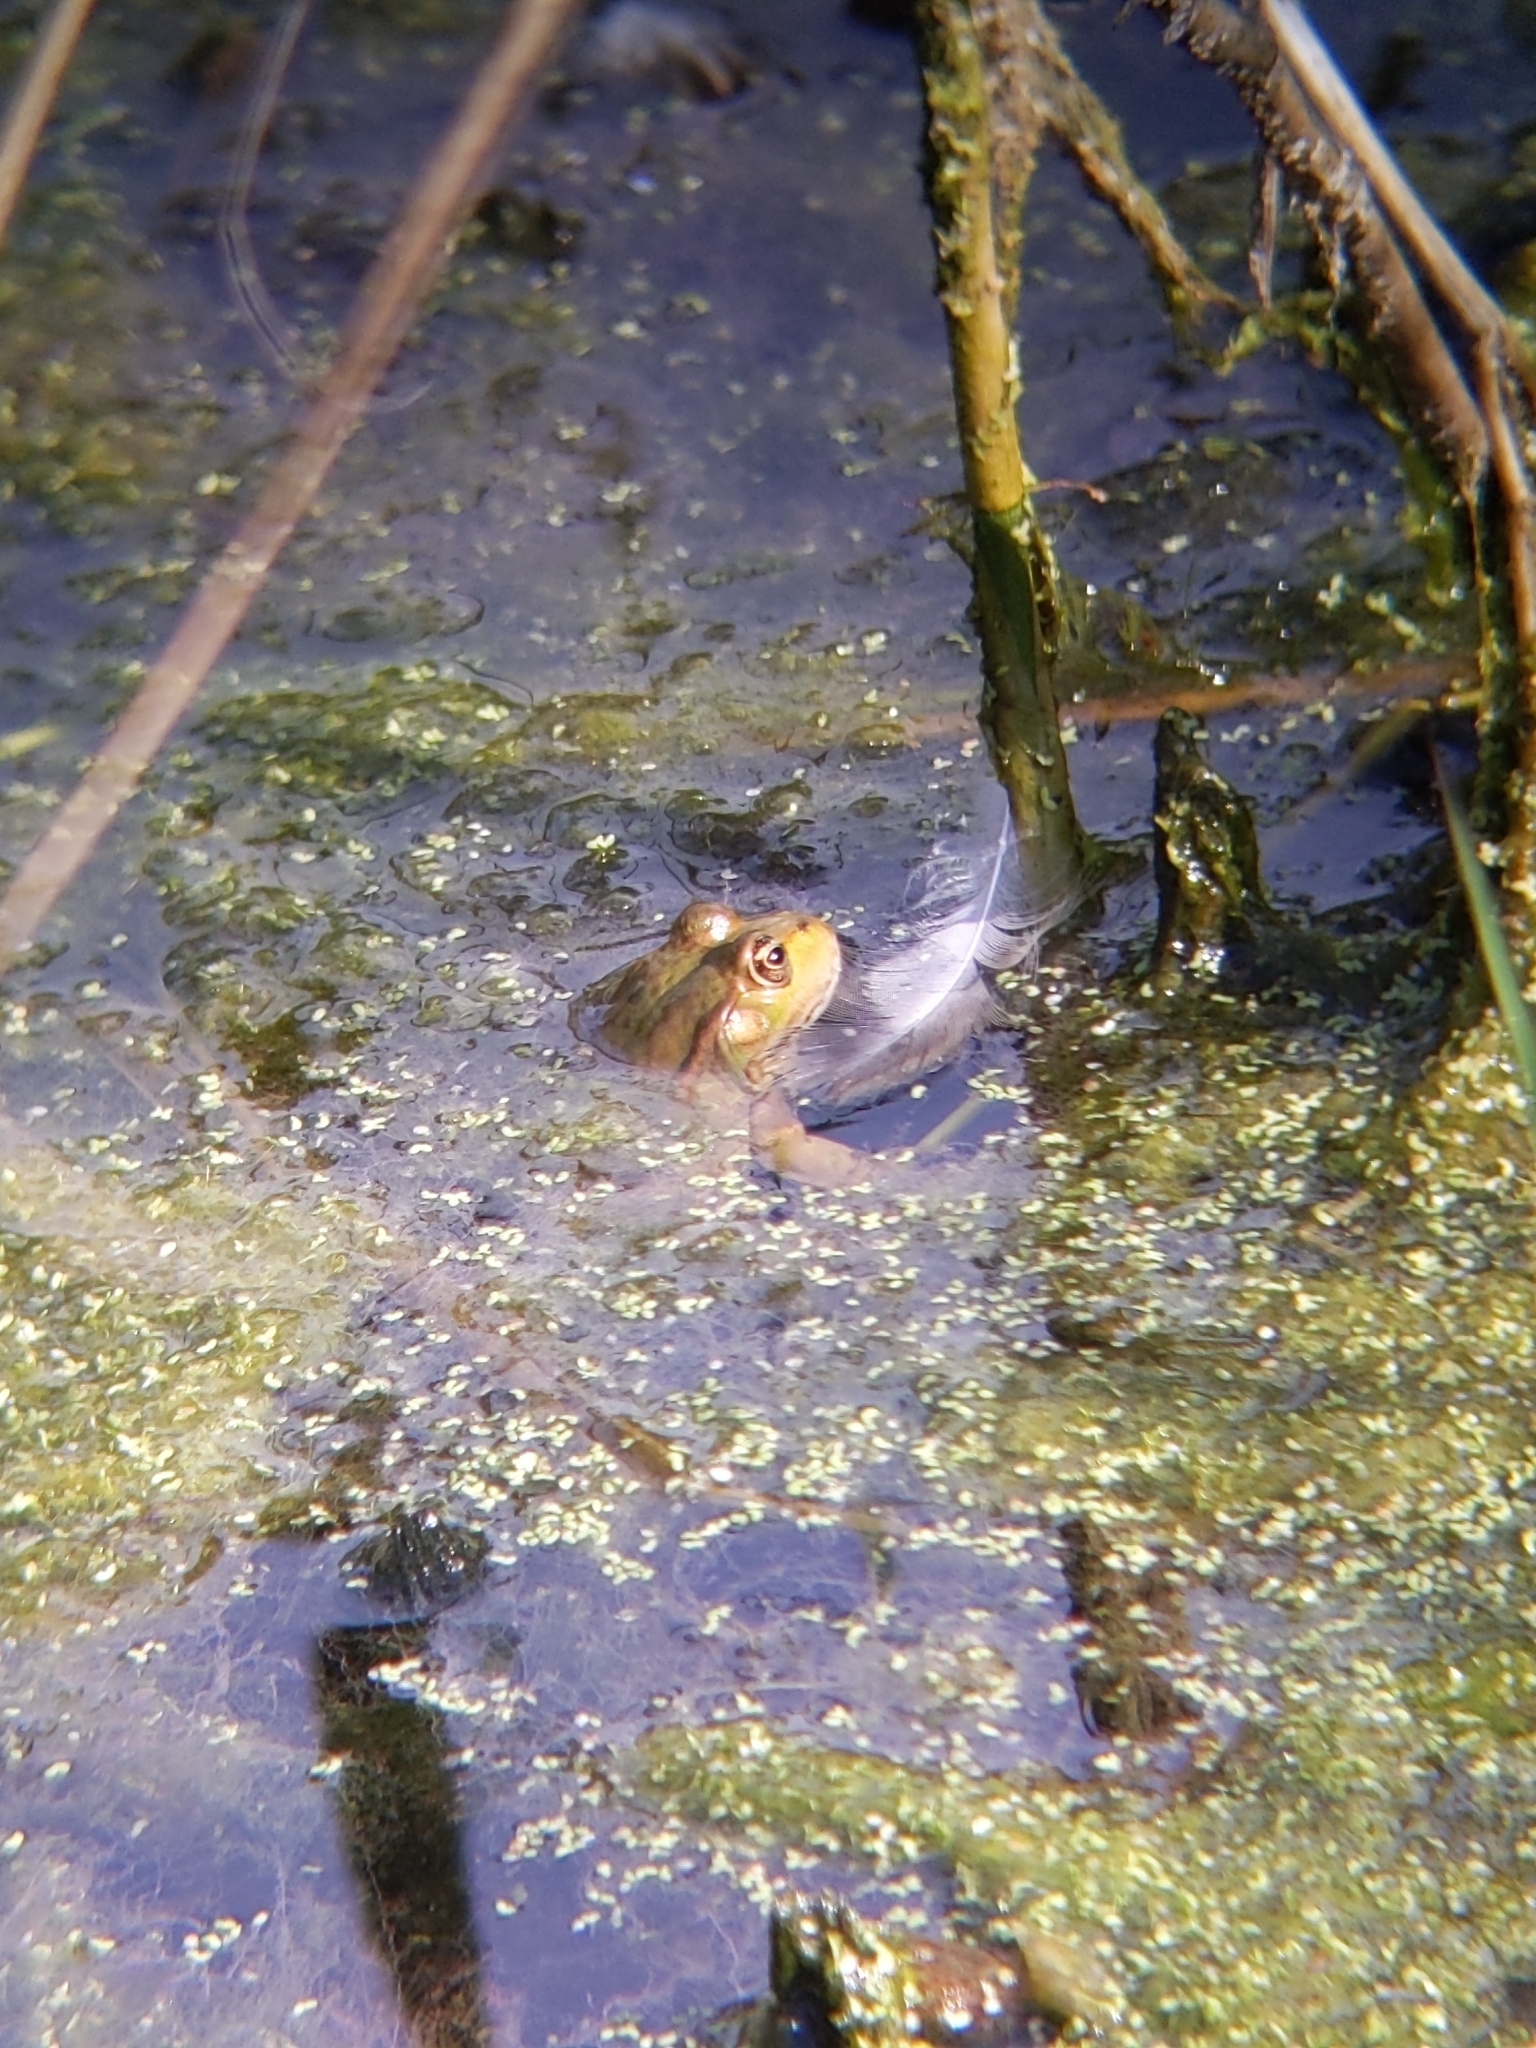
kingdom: Animalia
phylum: Chordata
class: Amphibia
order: Anura
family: Ranidae
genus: Pelophylax
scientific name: Pelophylax
